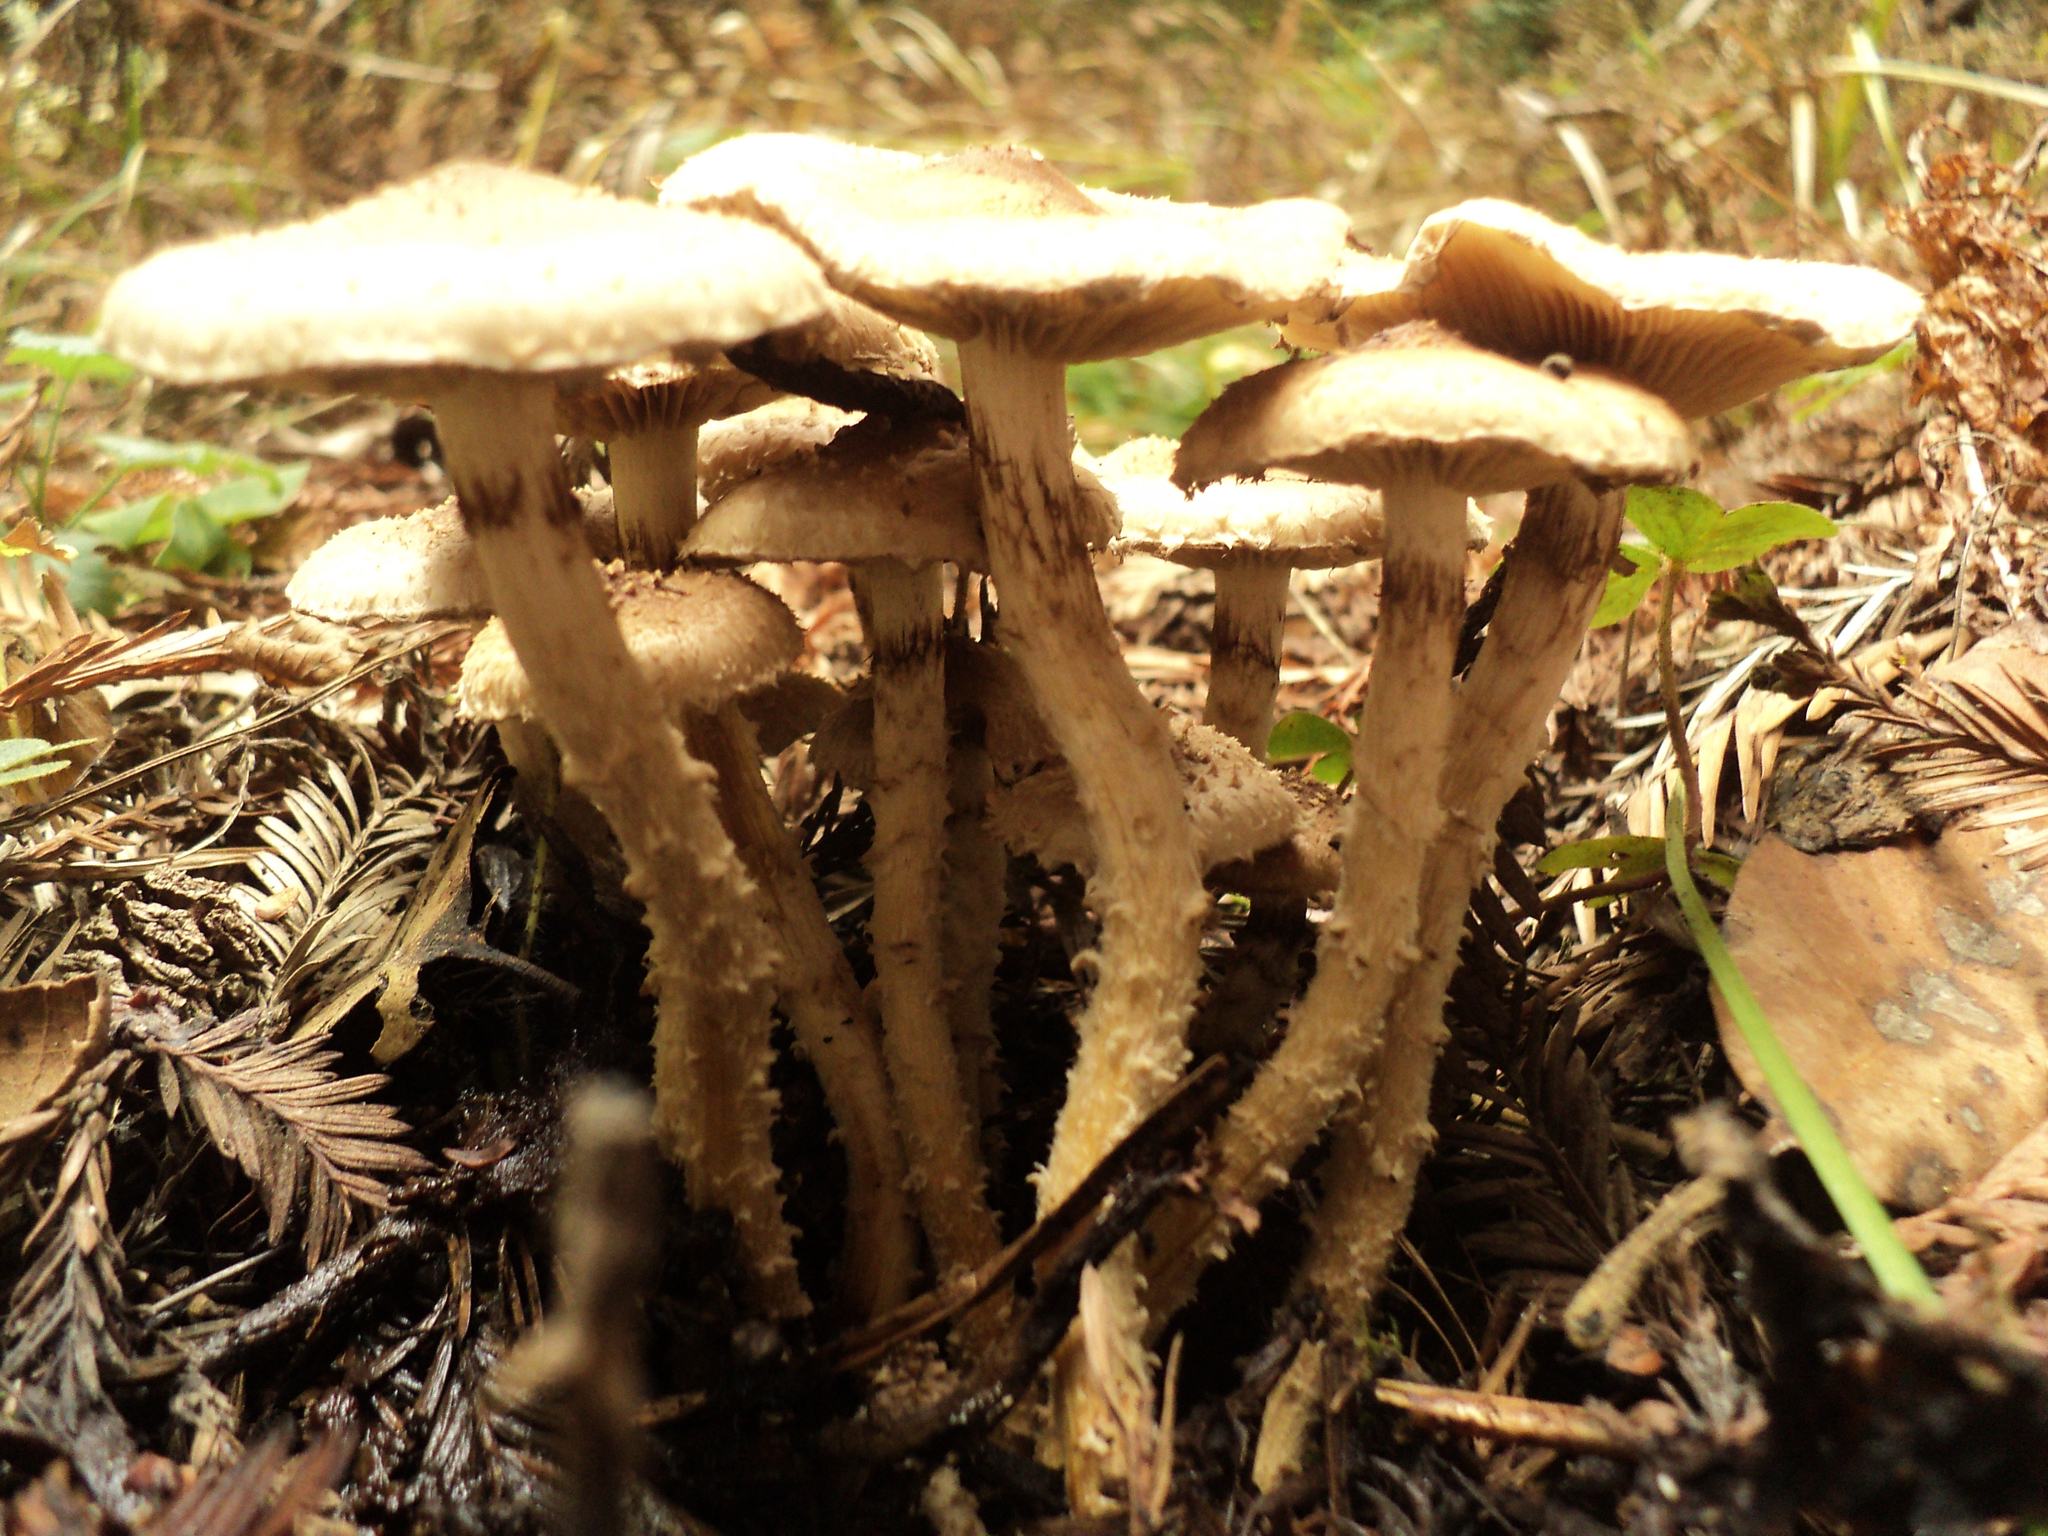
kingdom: Fungi
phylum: Basidiomycota
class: Agaricomycetes
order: Agaricales
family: Strophariaceae
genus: Pholiota
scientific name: Pholiota terrestris
